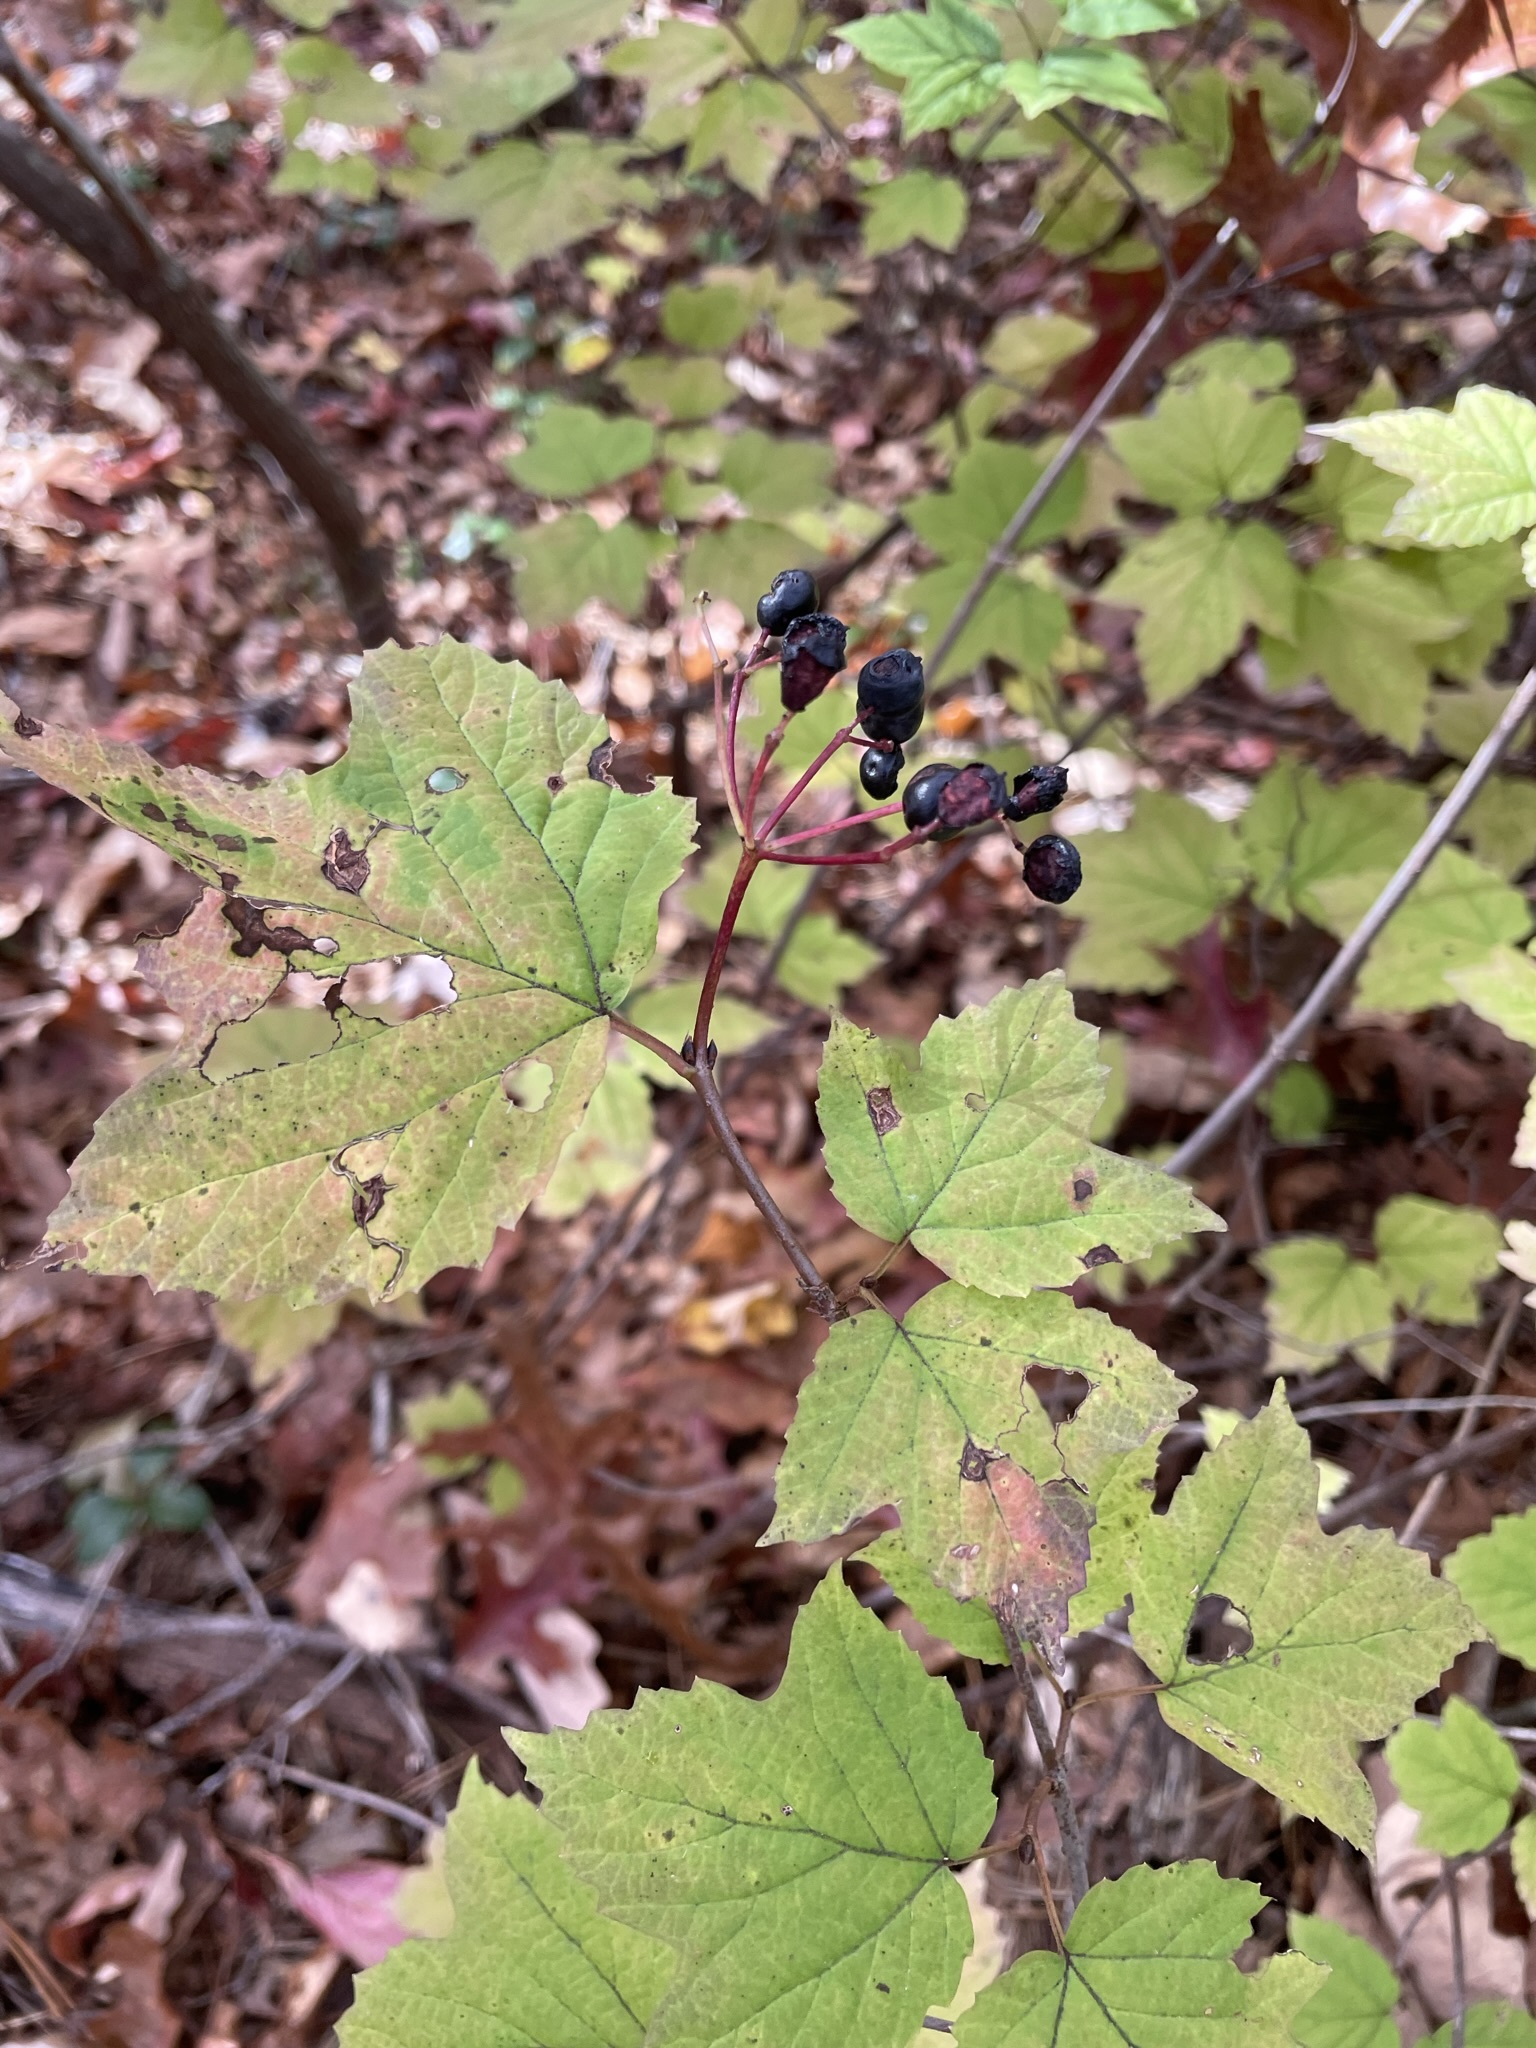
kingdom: Plantae
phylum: Tracheophyta
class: Magnoliopsida
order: Dipsacales
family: Viburnaceae
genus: Viburnum
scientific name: Viburnum acerifolium
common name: Dockmackie
